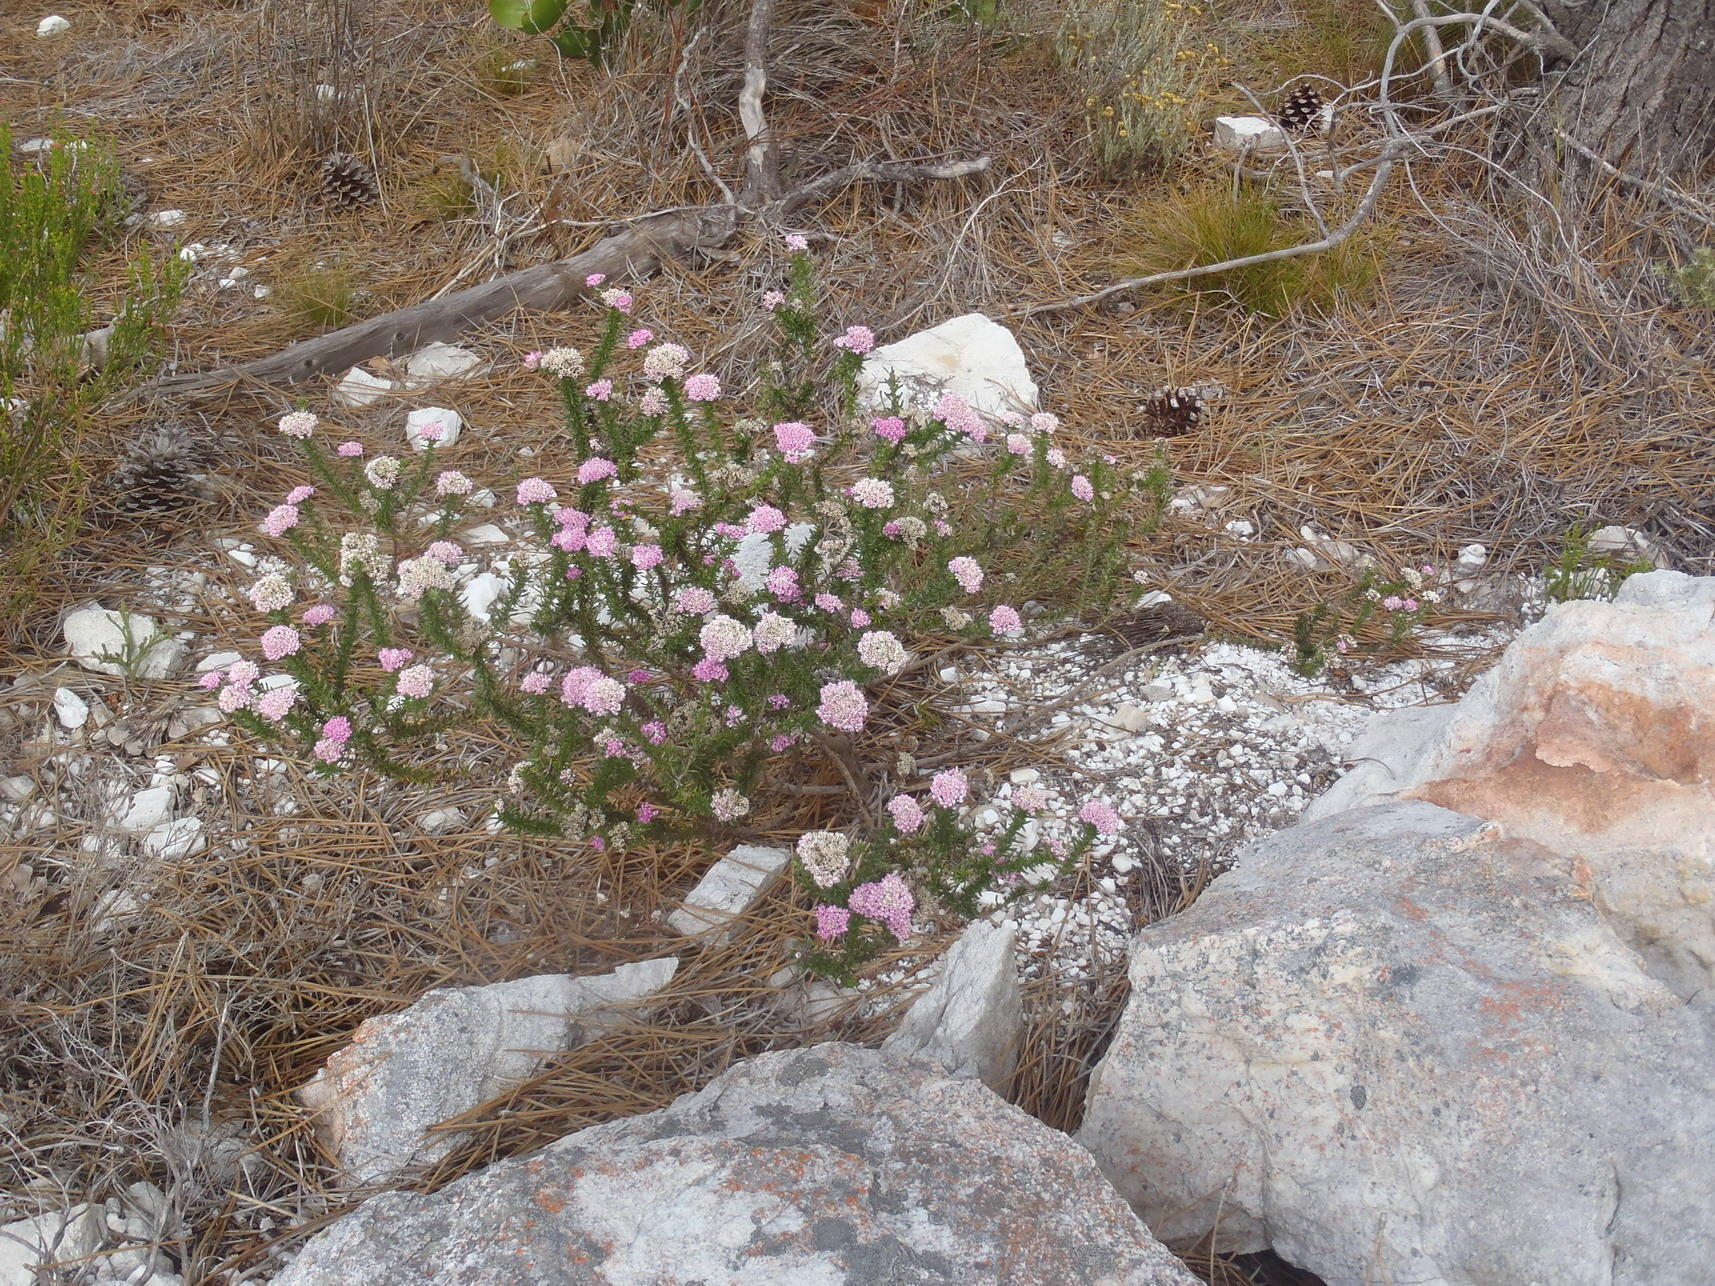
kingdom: Plantae
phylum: Tracheophyta
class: Magnoliopsida
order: Asterales
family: Asteraceae
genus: Metalasia
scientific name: Metalasia erubescens
